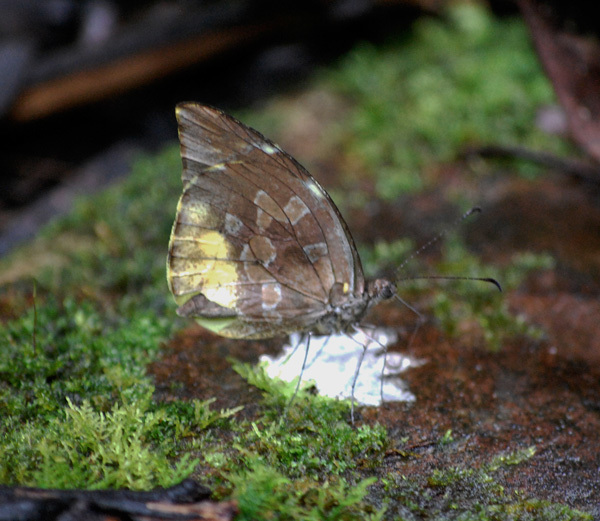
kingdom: Animalia
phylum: Arthropoda
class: Insecta
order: Lepidoptera
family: Pieridae
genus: Lieinix
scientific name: Lieinix nemesis
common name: Frosted mimic-white
